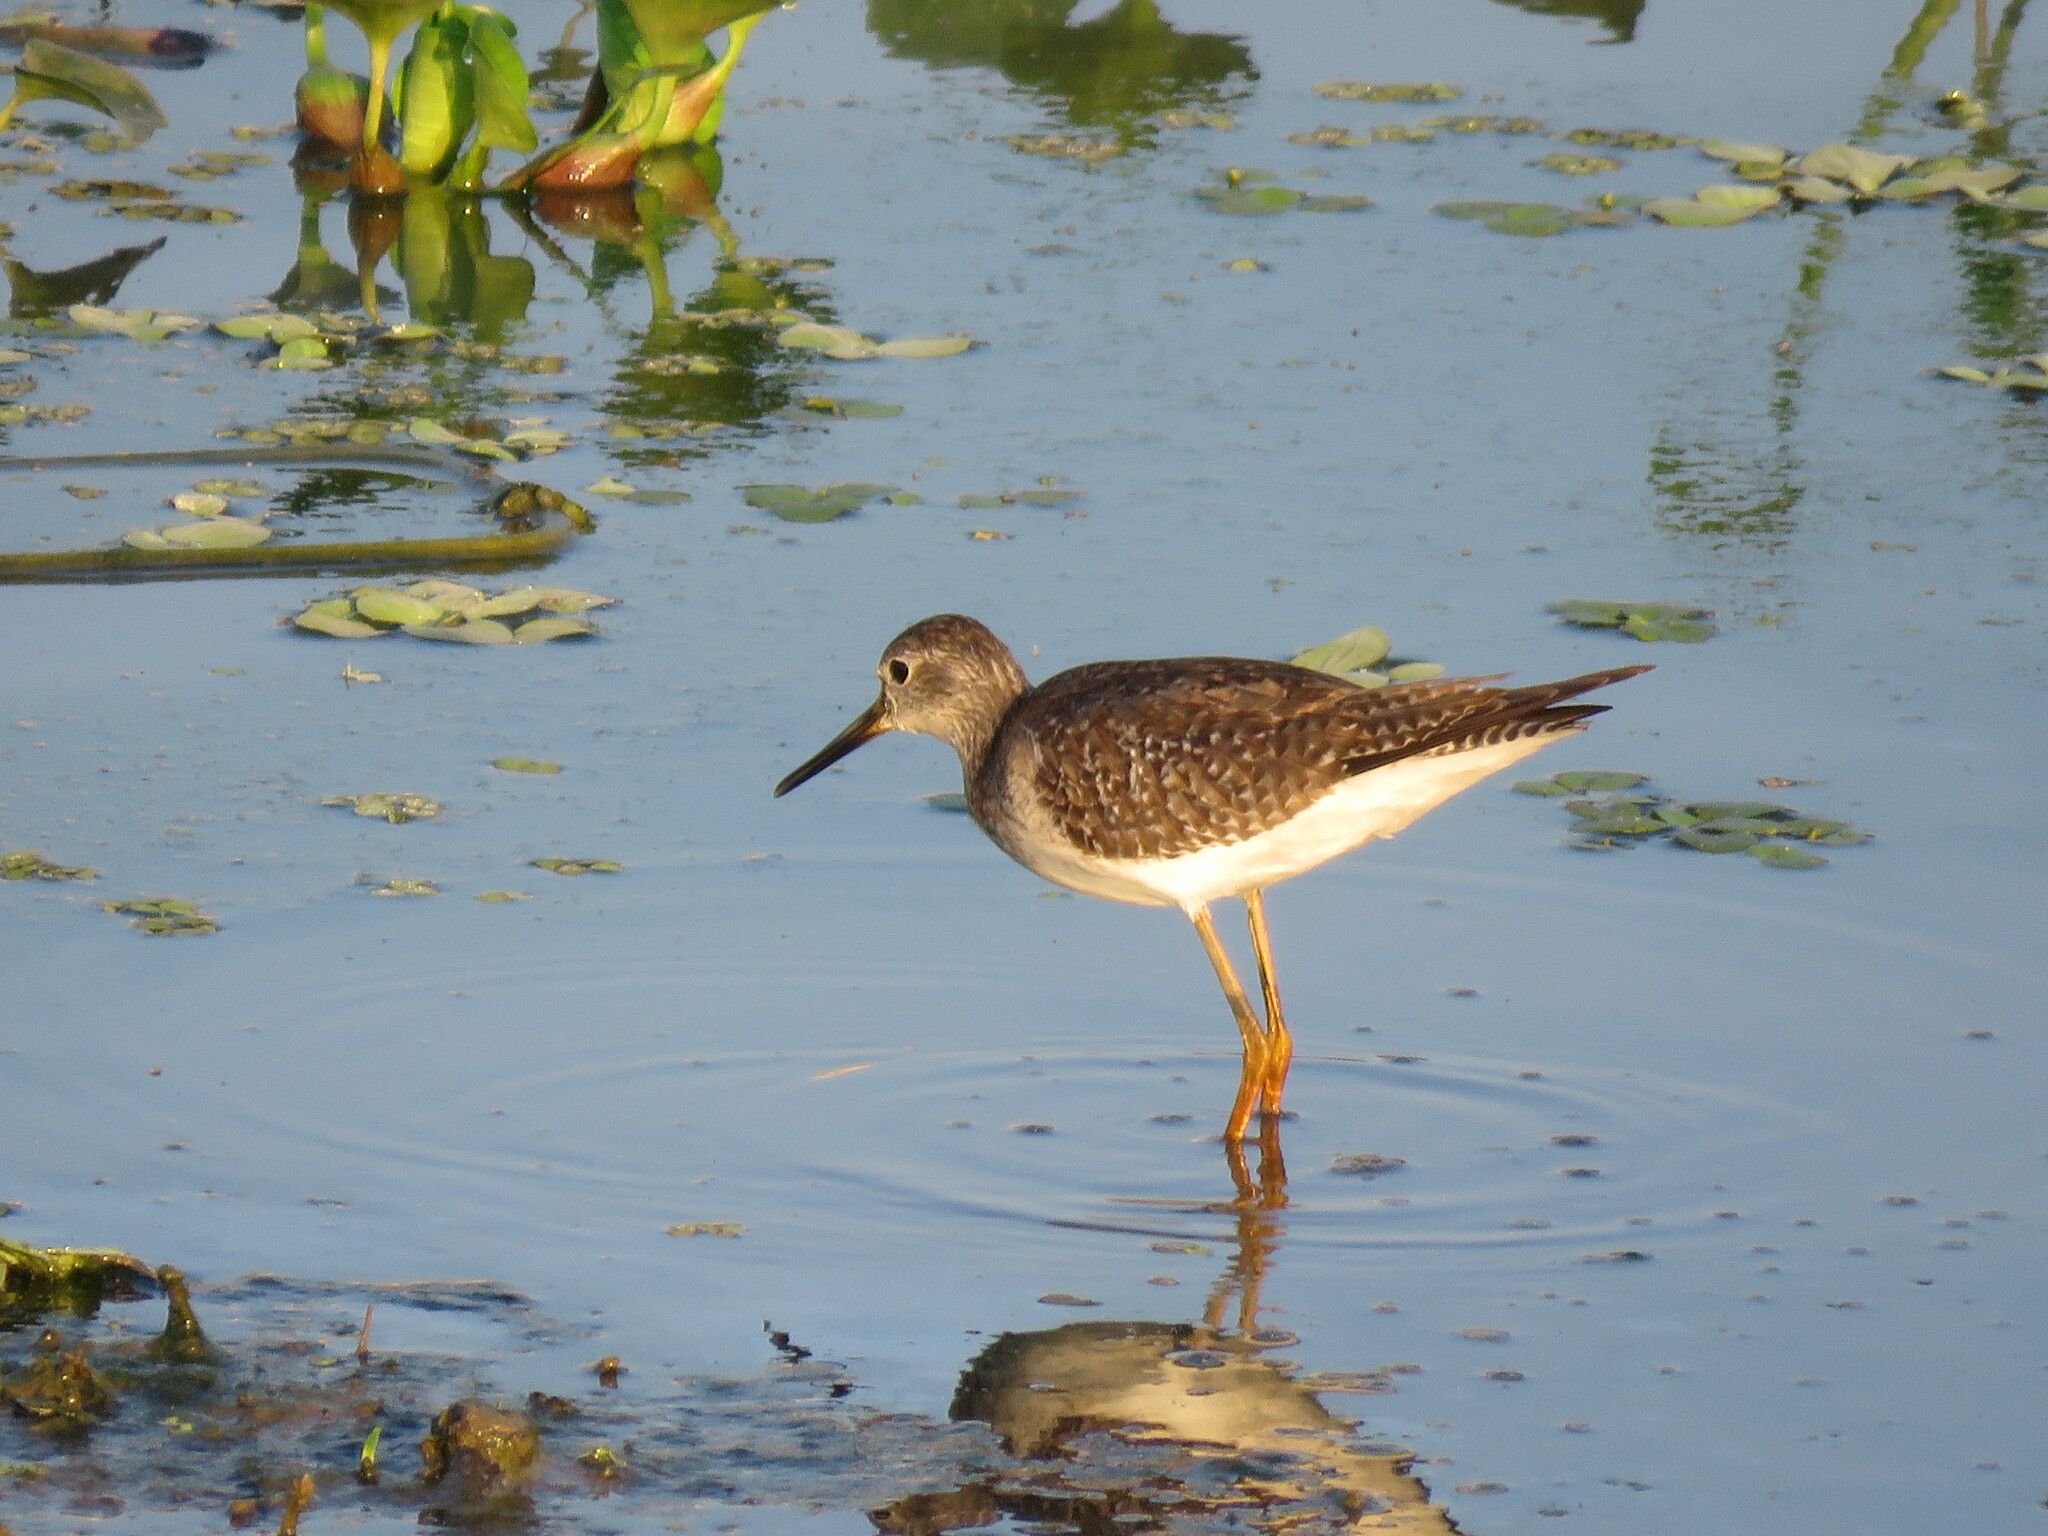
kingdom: Animalia
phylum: Chordata
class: Aves
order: Charadriiformes
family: Scolopacidae
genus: Tringa
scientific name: Tringa flavipes
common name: Lesser yellowlegs
